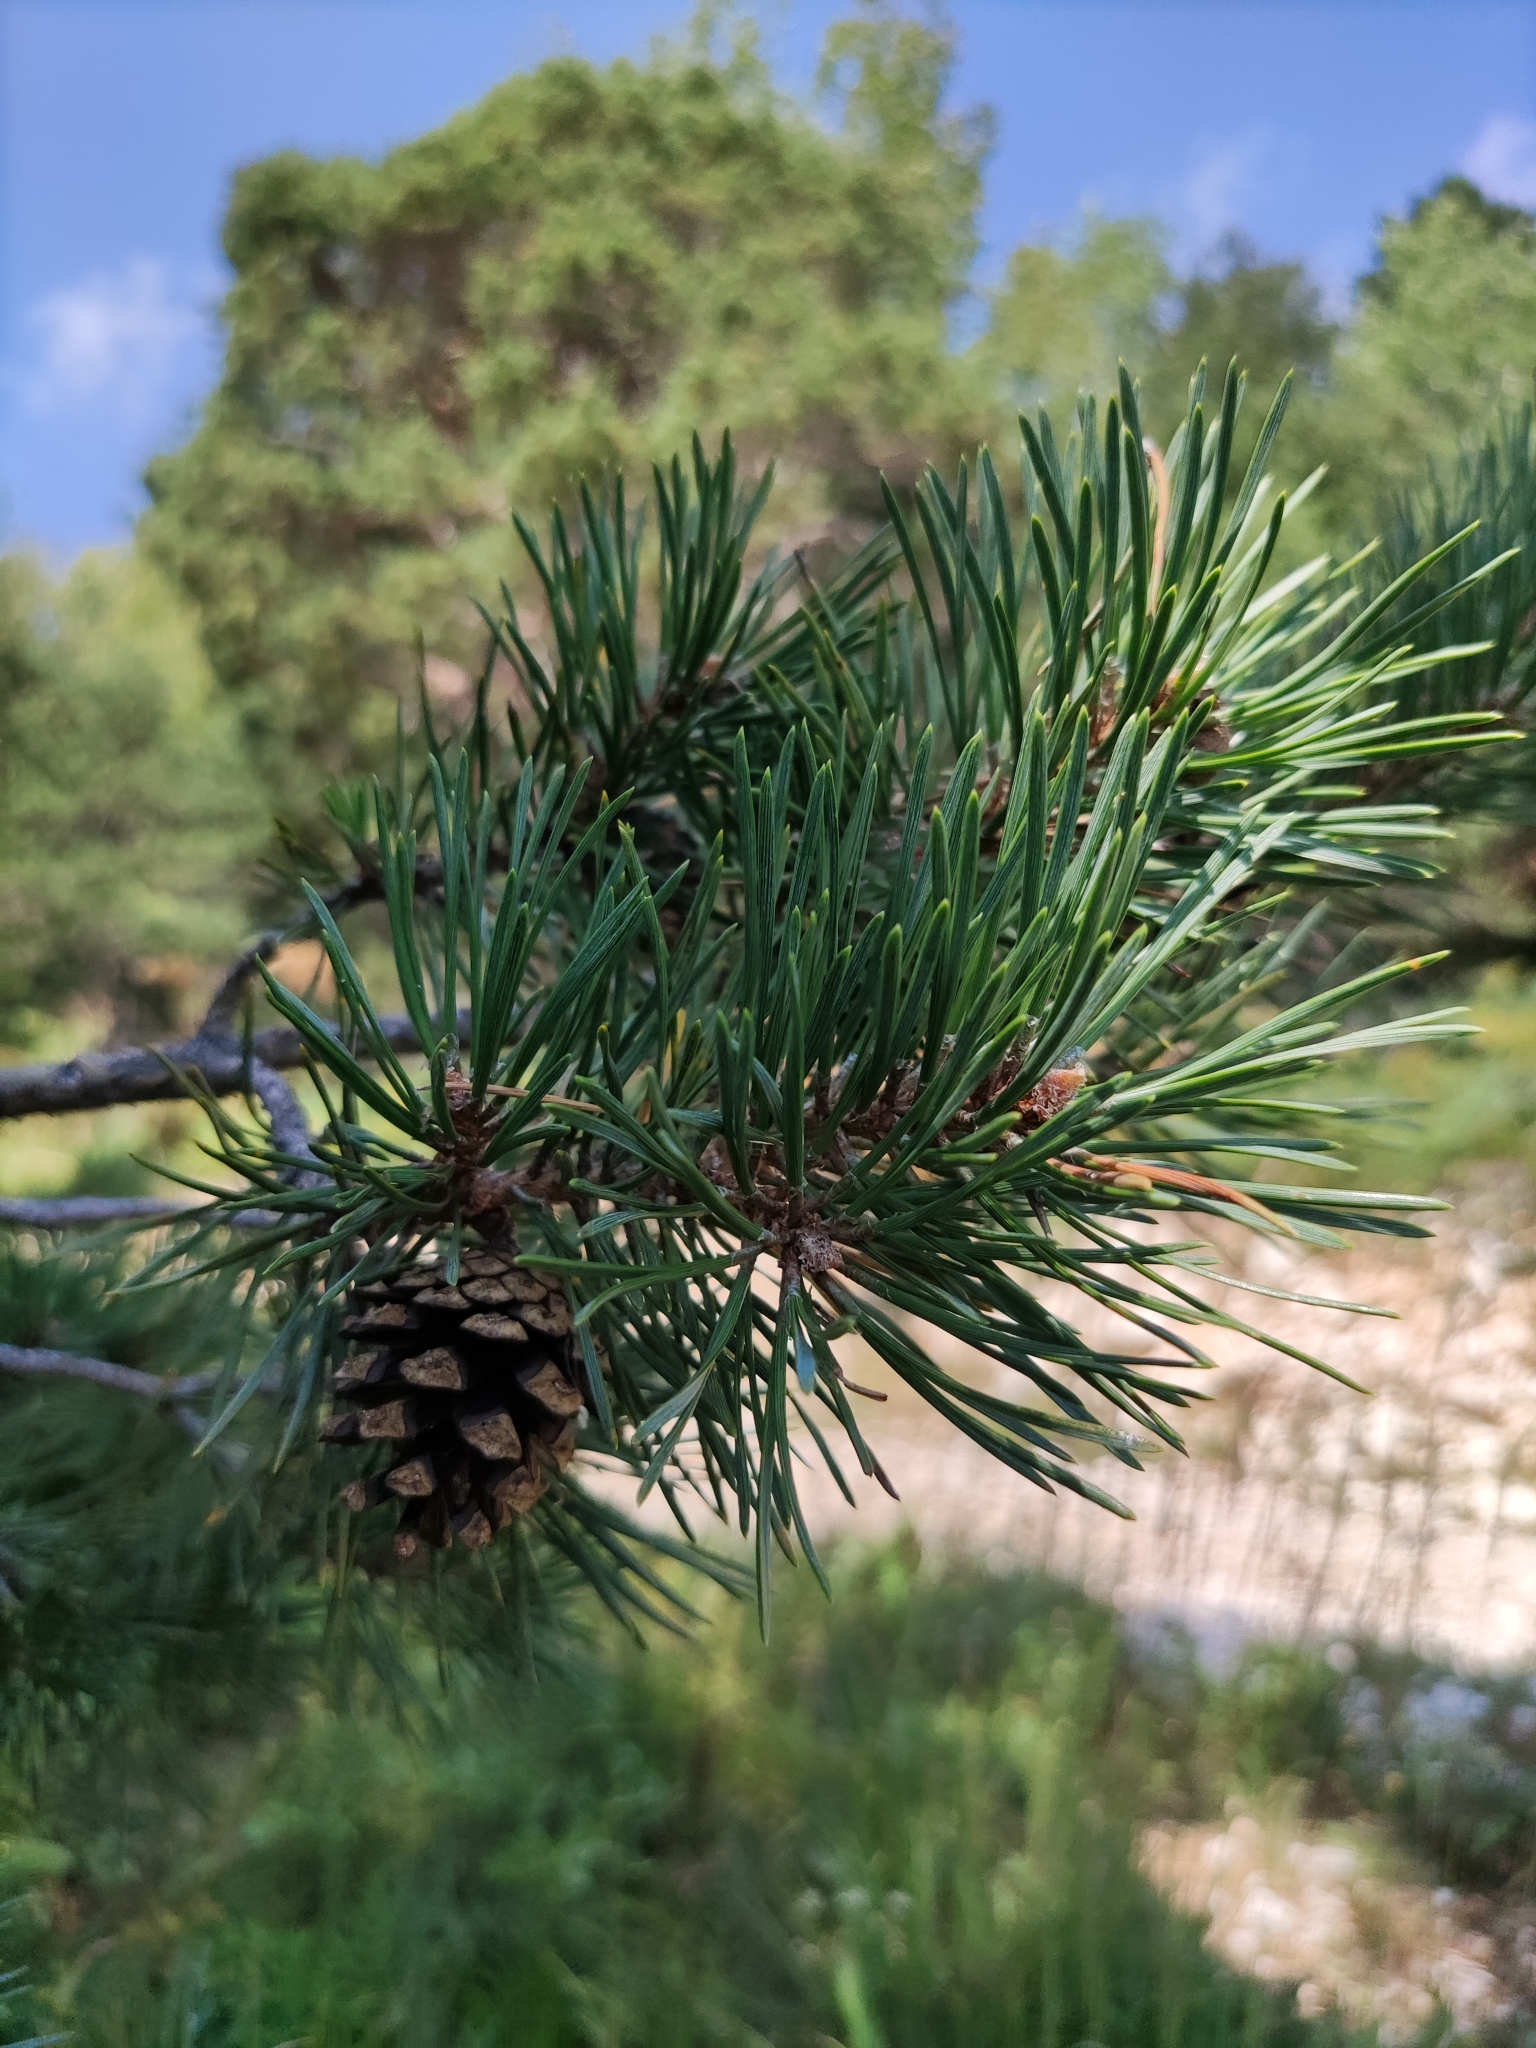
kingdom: Plantae
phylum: Tracheophyta
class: Pinopsida
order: Pinales
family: Pinaceae
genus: Pinus
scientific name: Pinus sylvestris
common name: Scots pine
